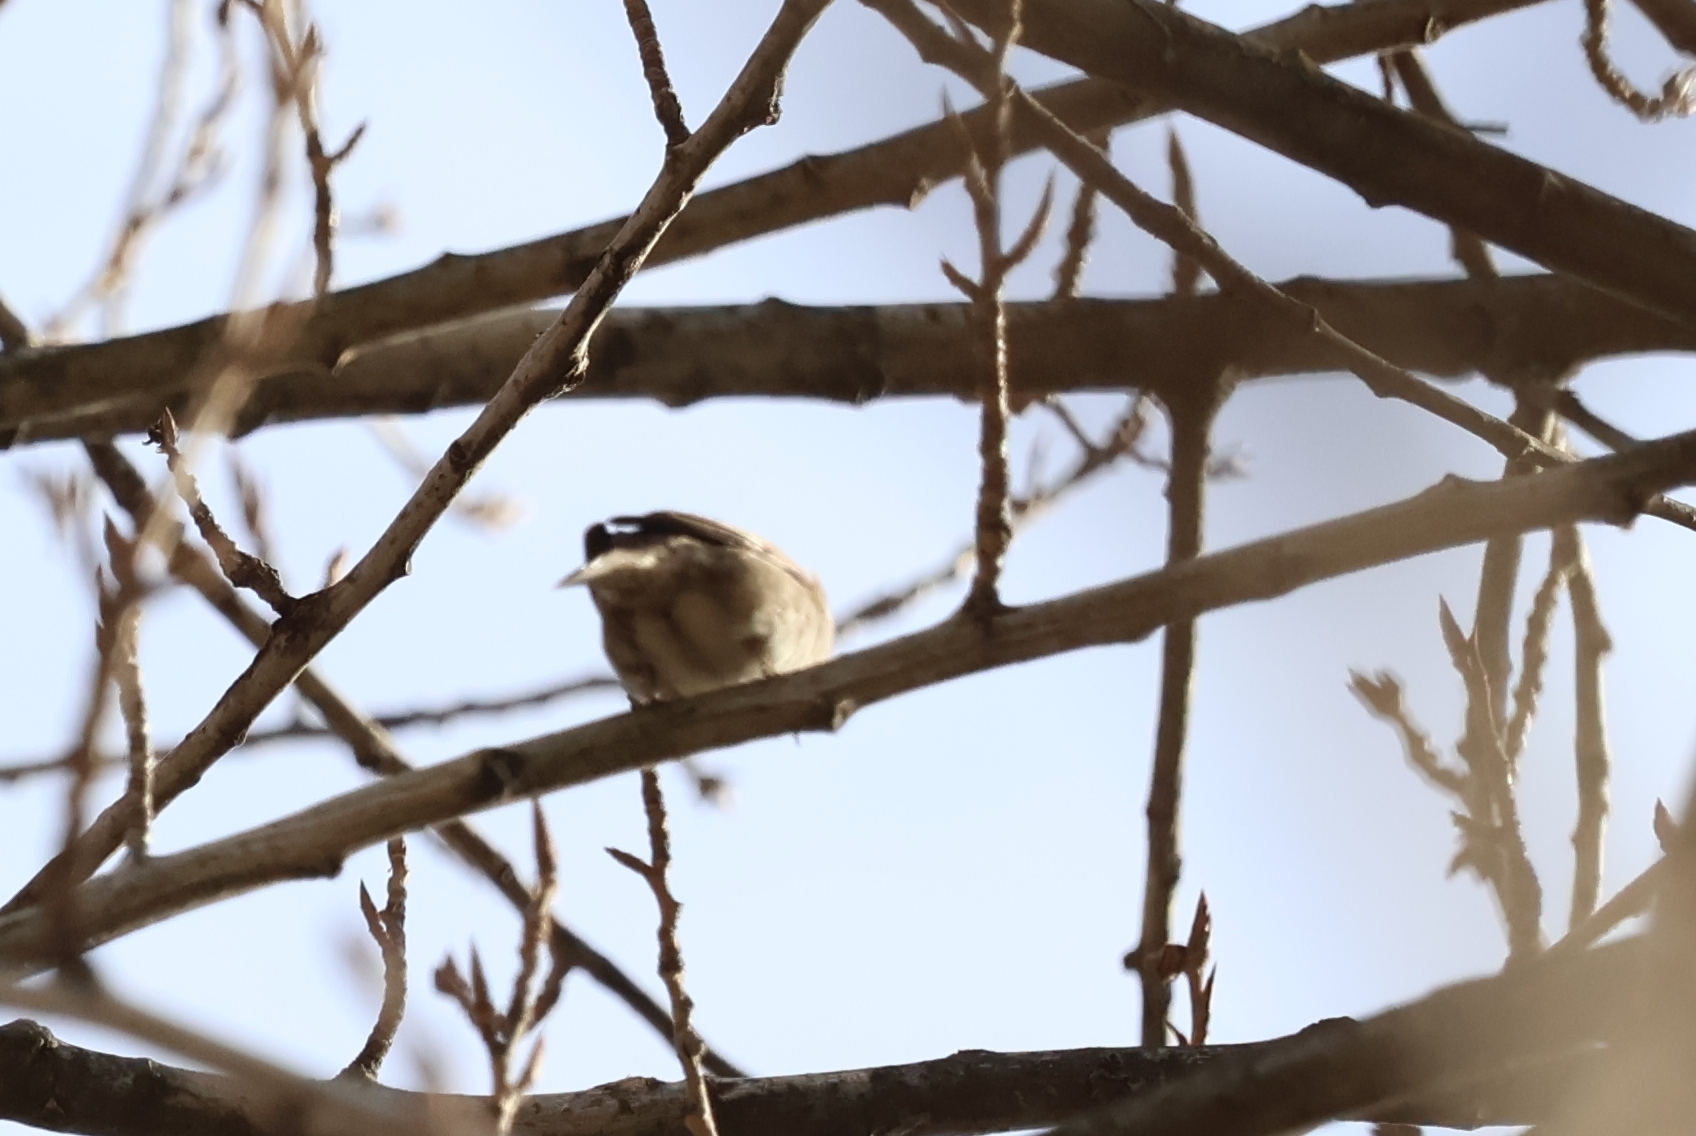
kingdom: Animalia
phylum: Chordata
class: Aves
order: Passeriformes
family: Passeridae
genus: Passer
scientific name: Passer montanus
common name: Eurasian tree sparrow
